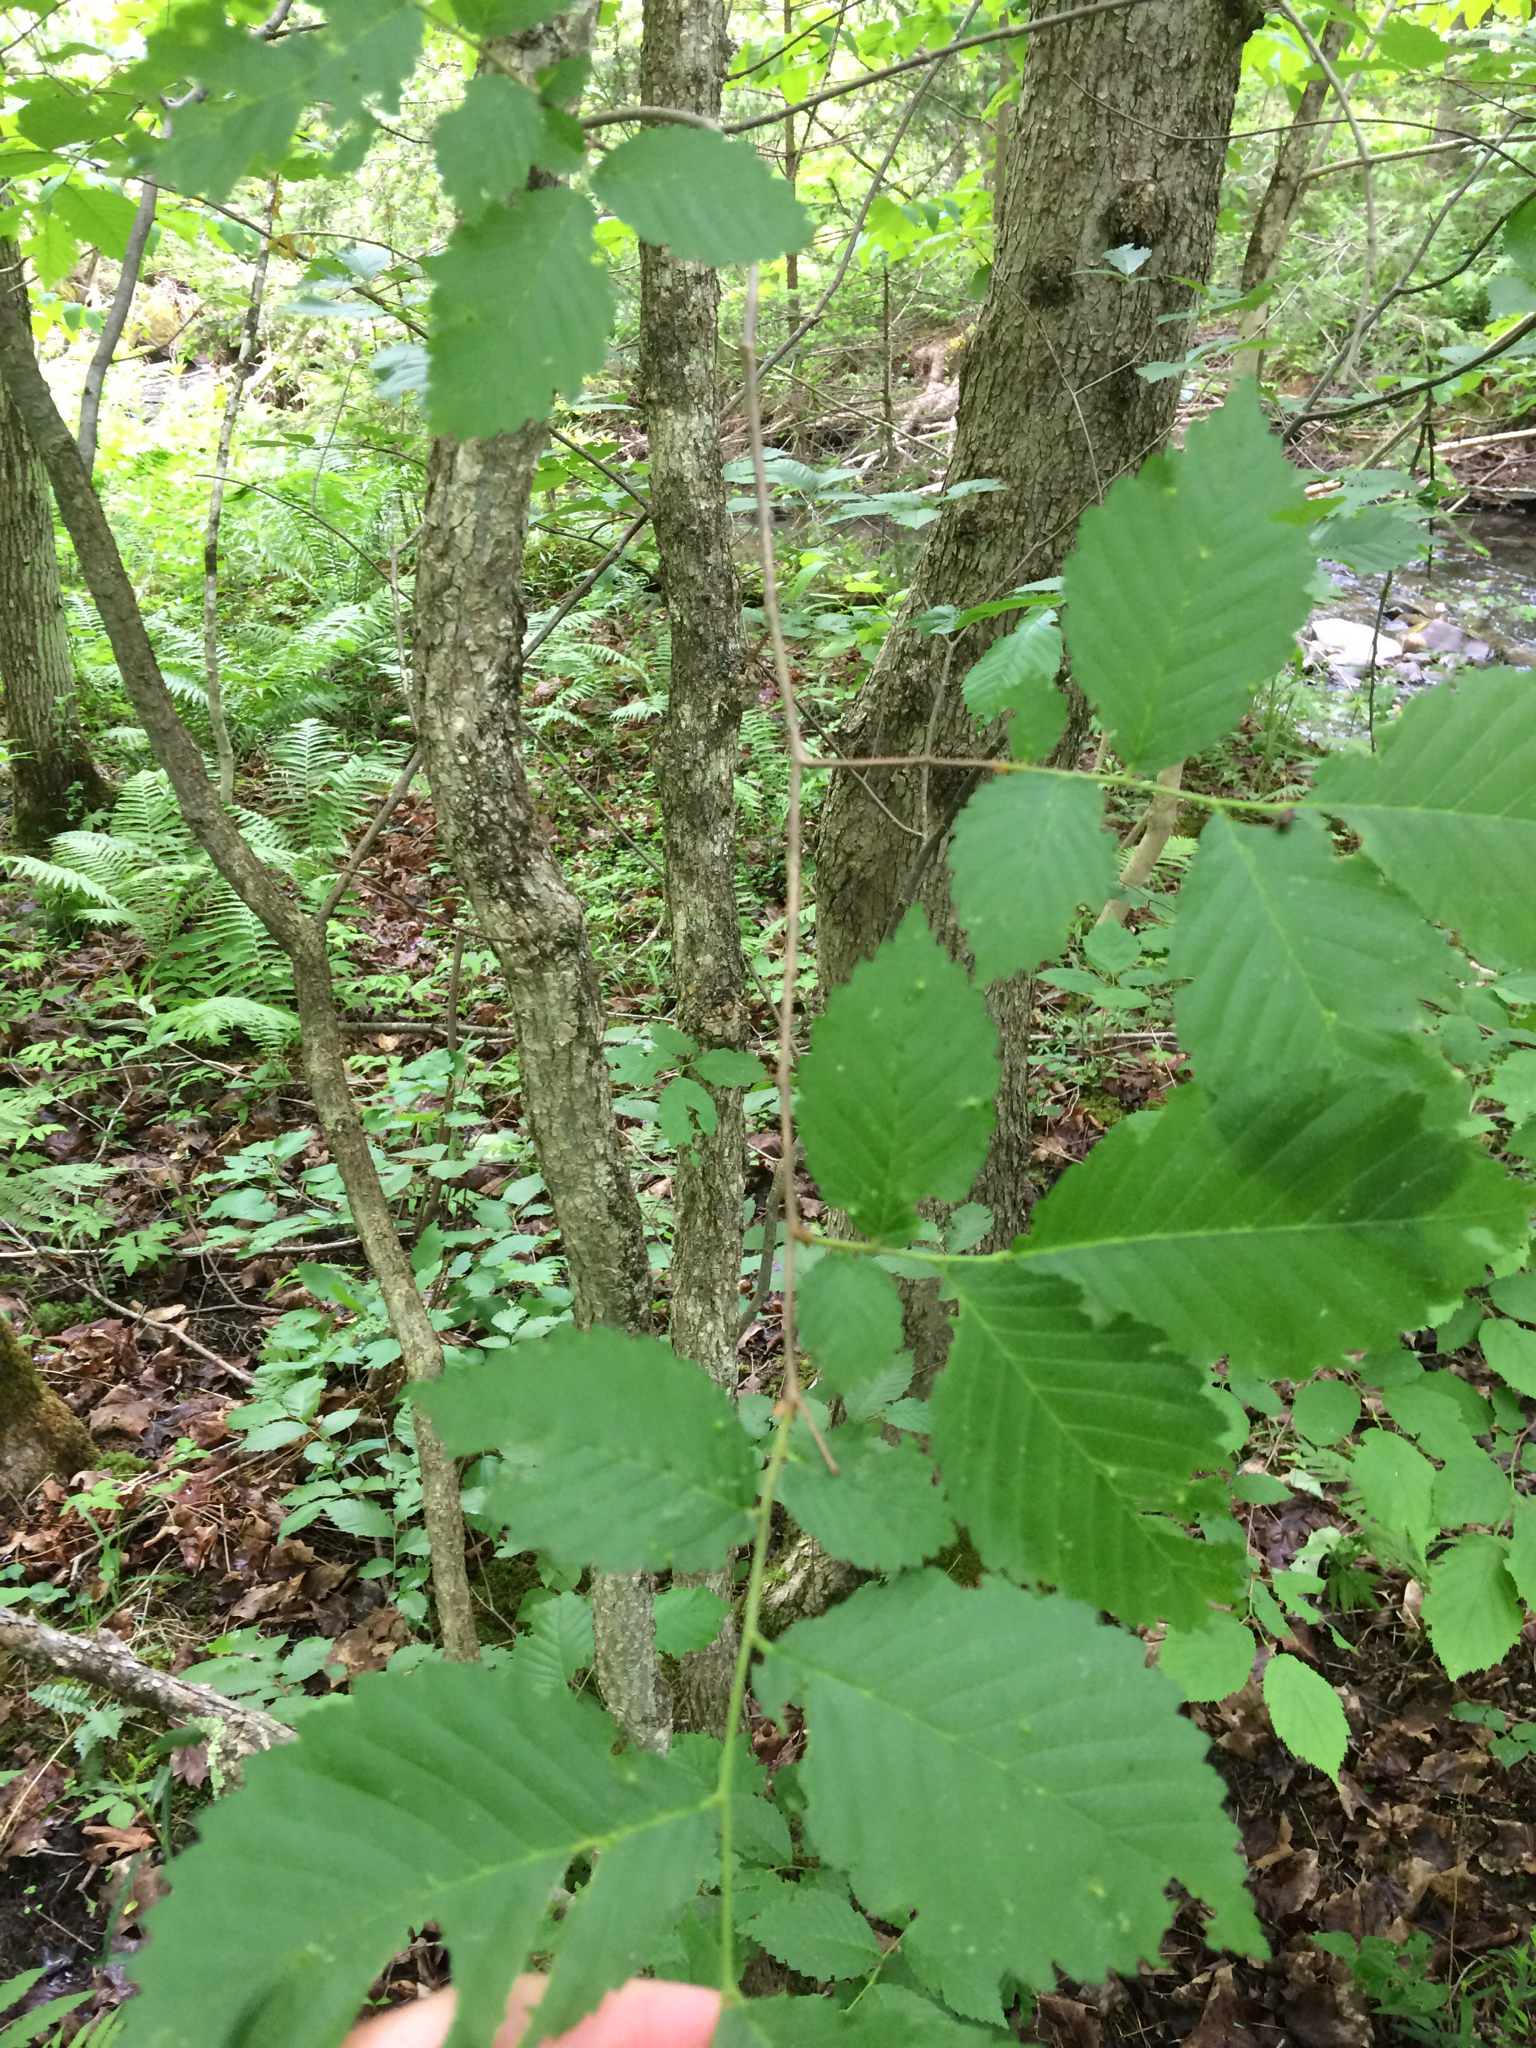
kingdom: Plantae
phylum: Tracheophyta
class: Magnoliopsida
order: Rosales
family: Ulmaceae
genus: Ulmus
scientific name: Ulmus americana
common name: American elm
